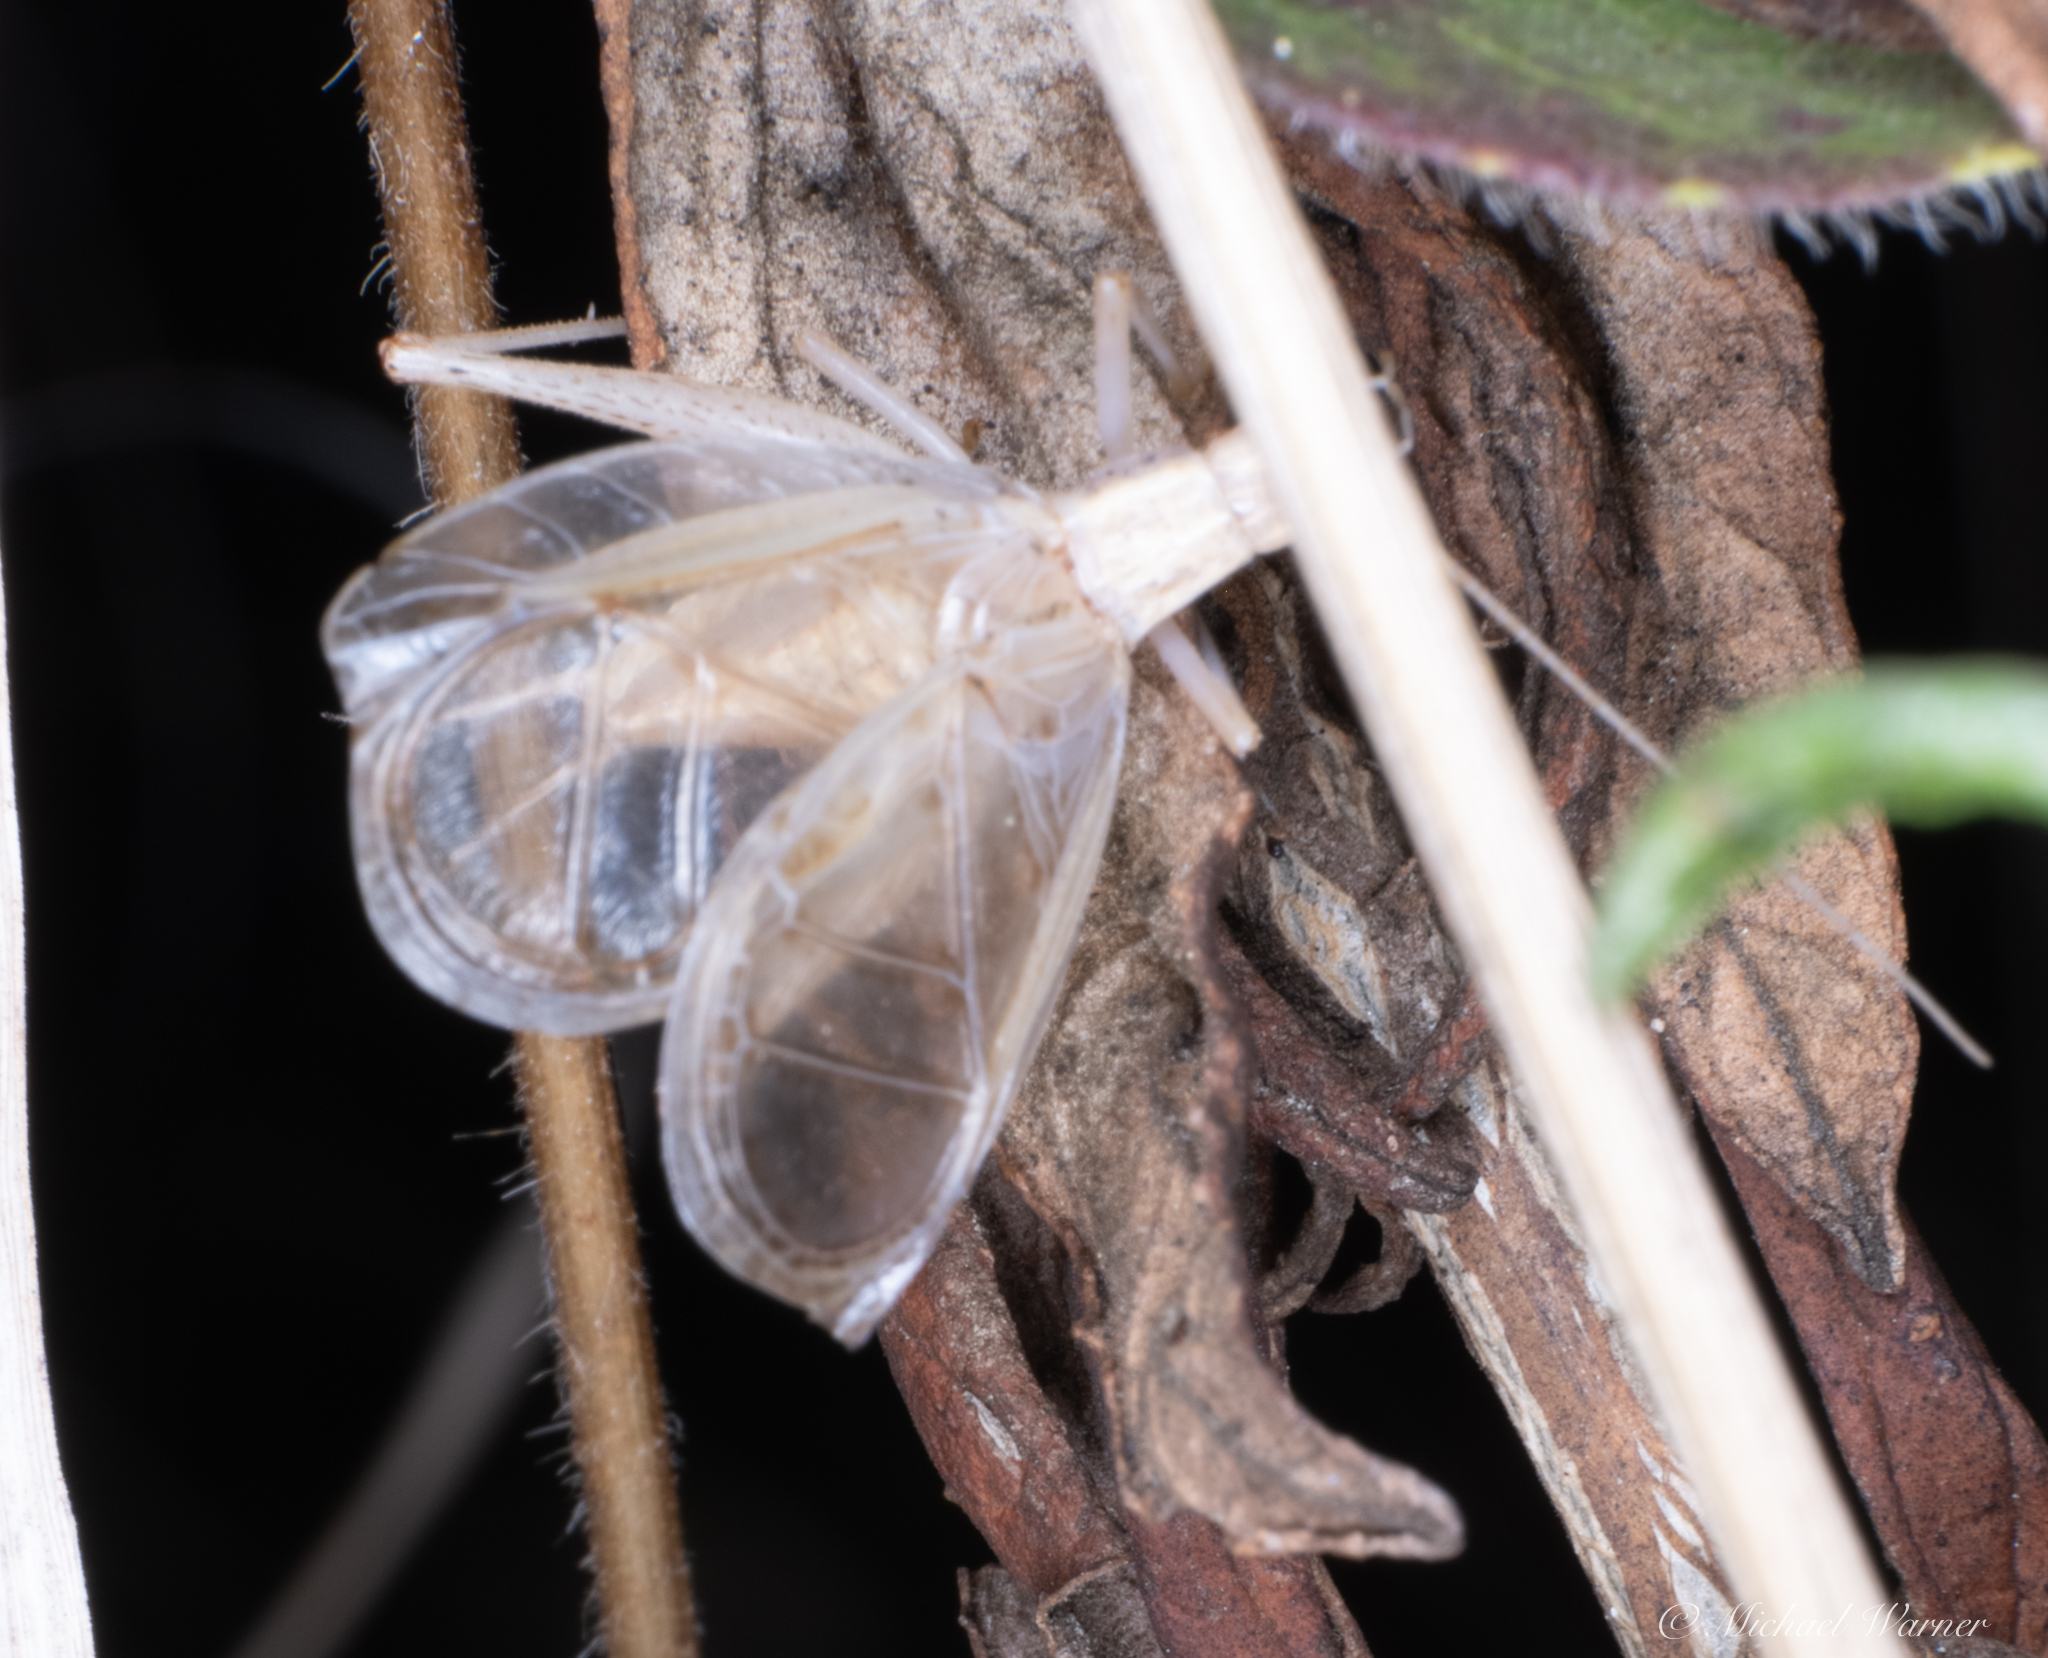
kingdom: Animalia
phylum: Arthropoda
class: Insecta
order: Orthoptera
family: Gryllidae
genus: Oecanthus
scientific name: Oecanthus californicus
